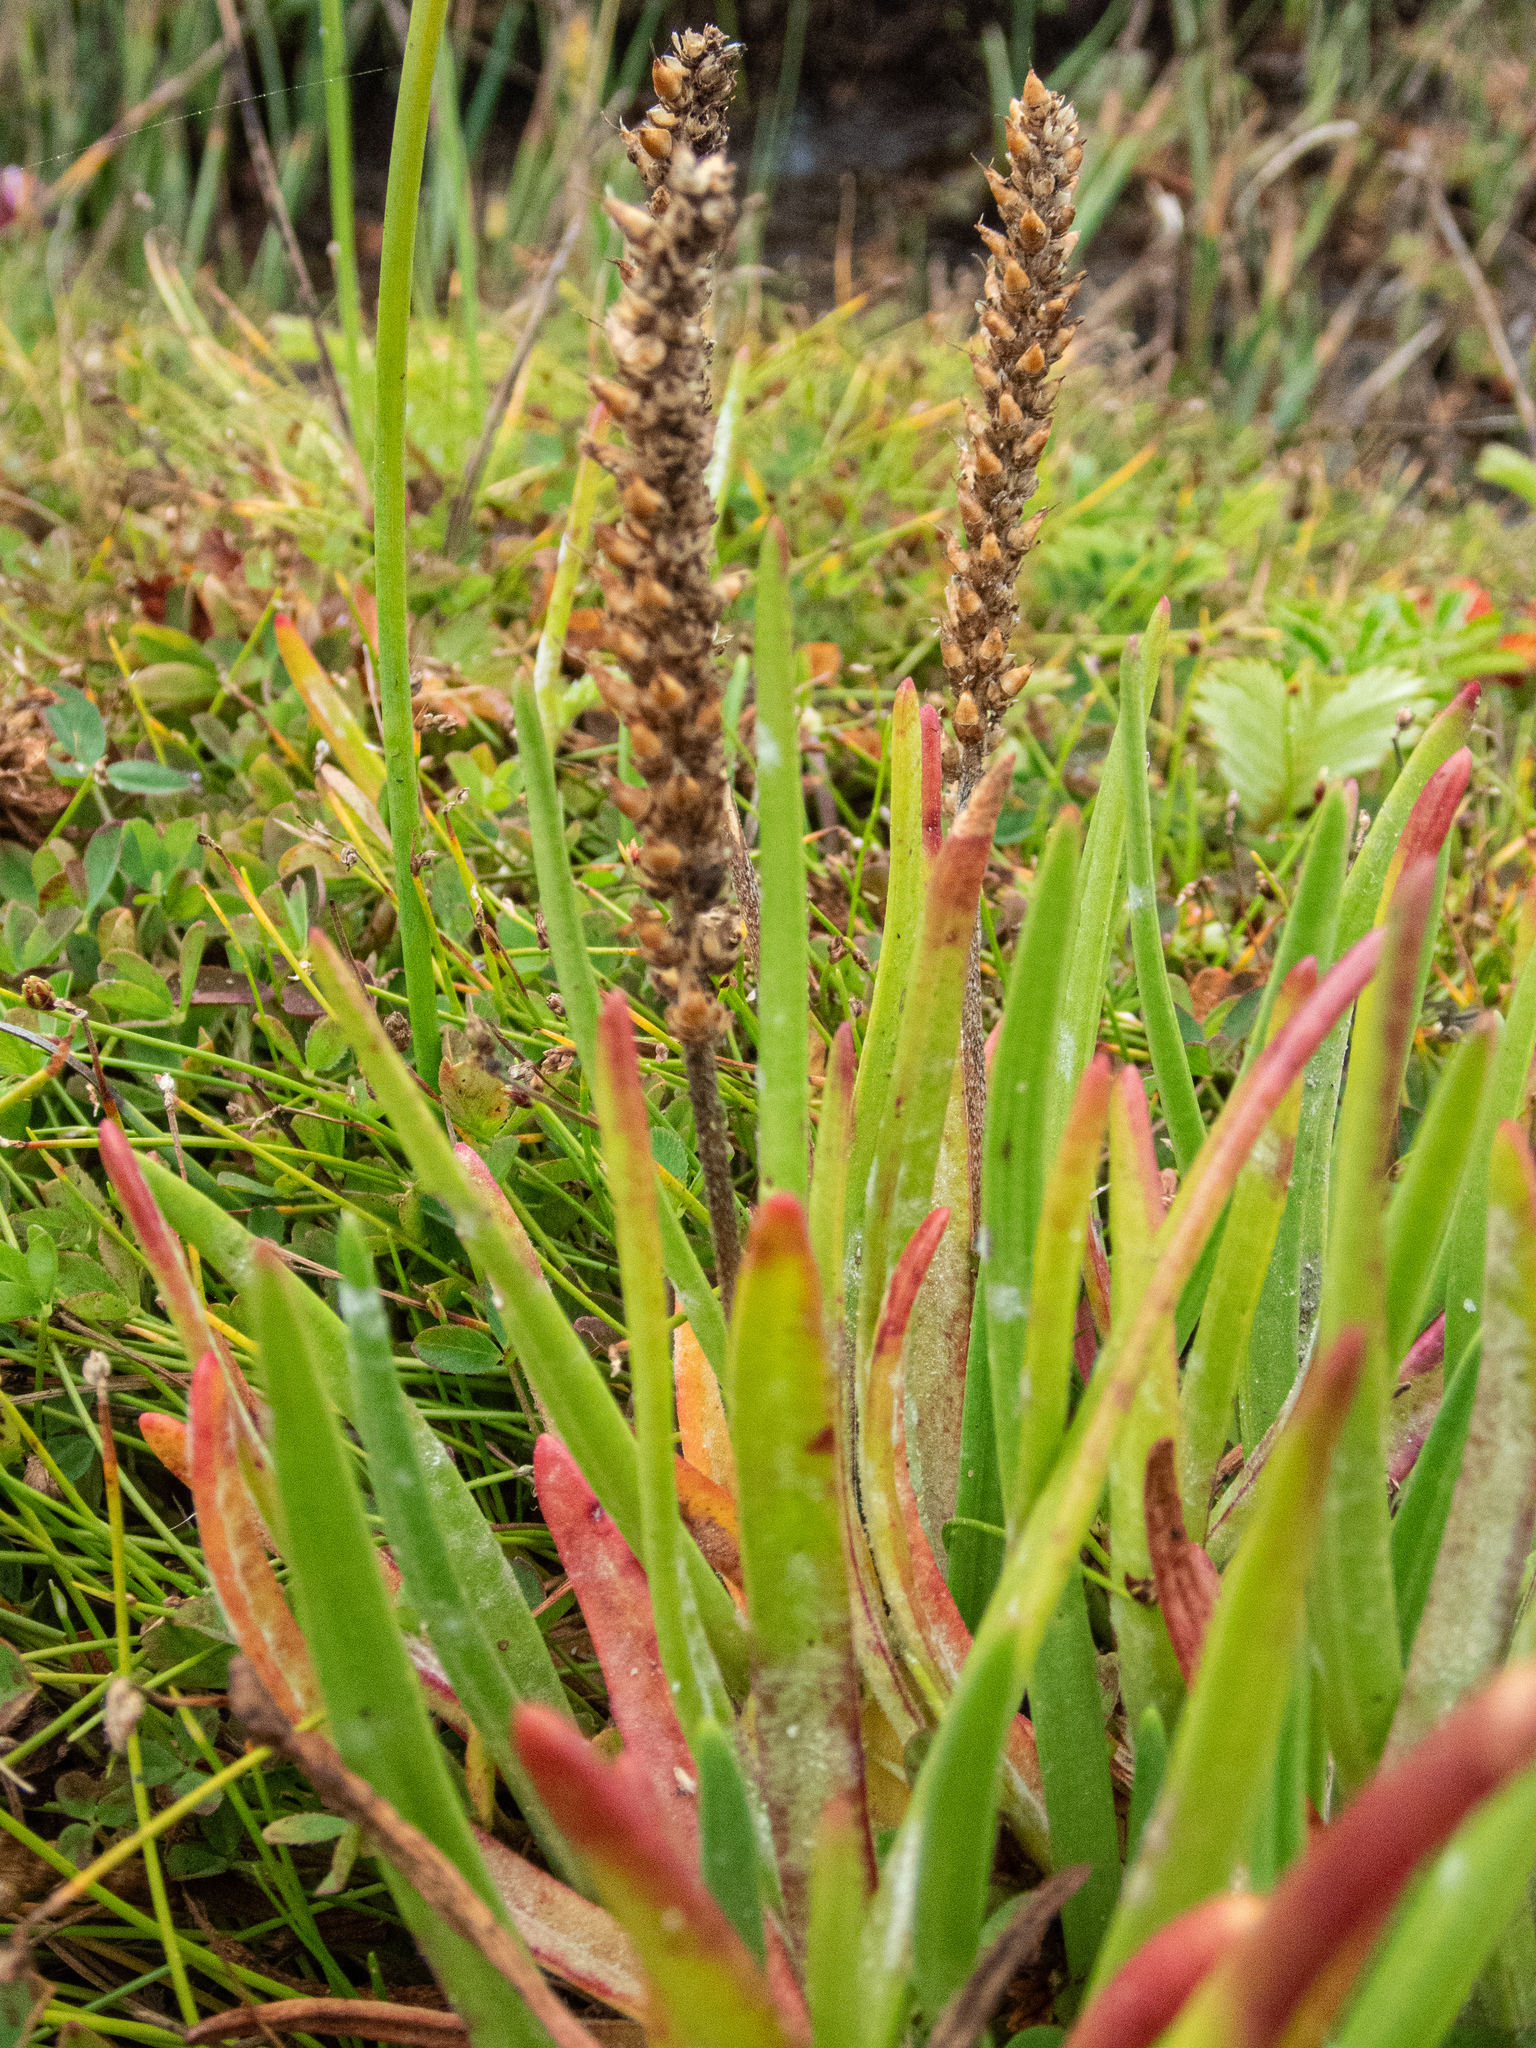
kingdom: Plantae
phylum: Tracheophyta
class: Magnoliopsida
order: Lamiales
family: Plantaginaceae
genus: Plantago
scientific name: Plantago maritima
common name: Sea plantain
